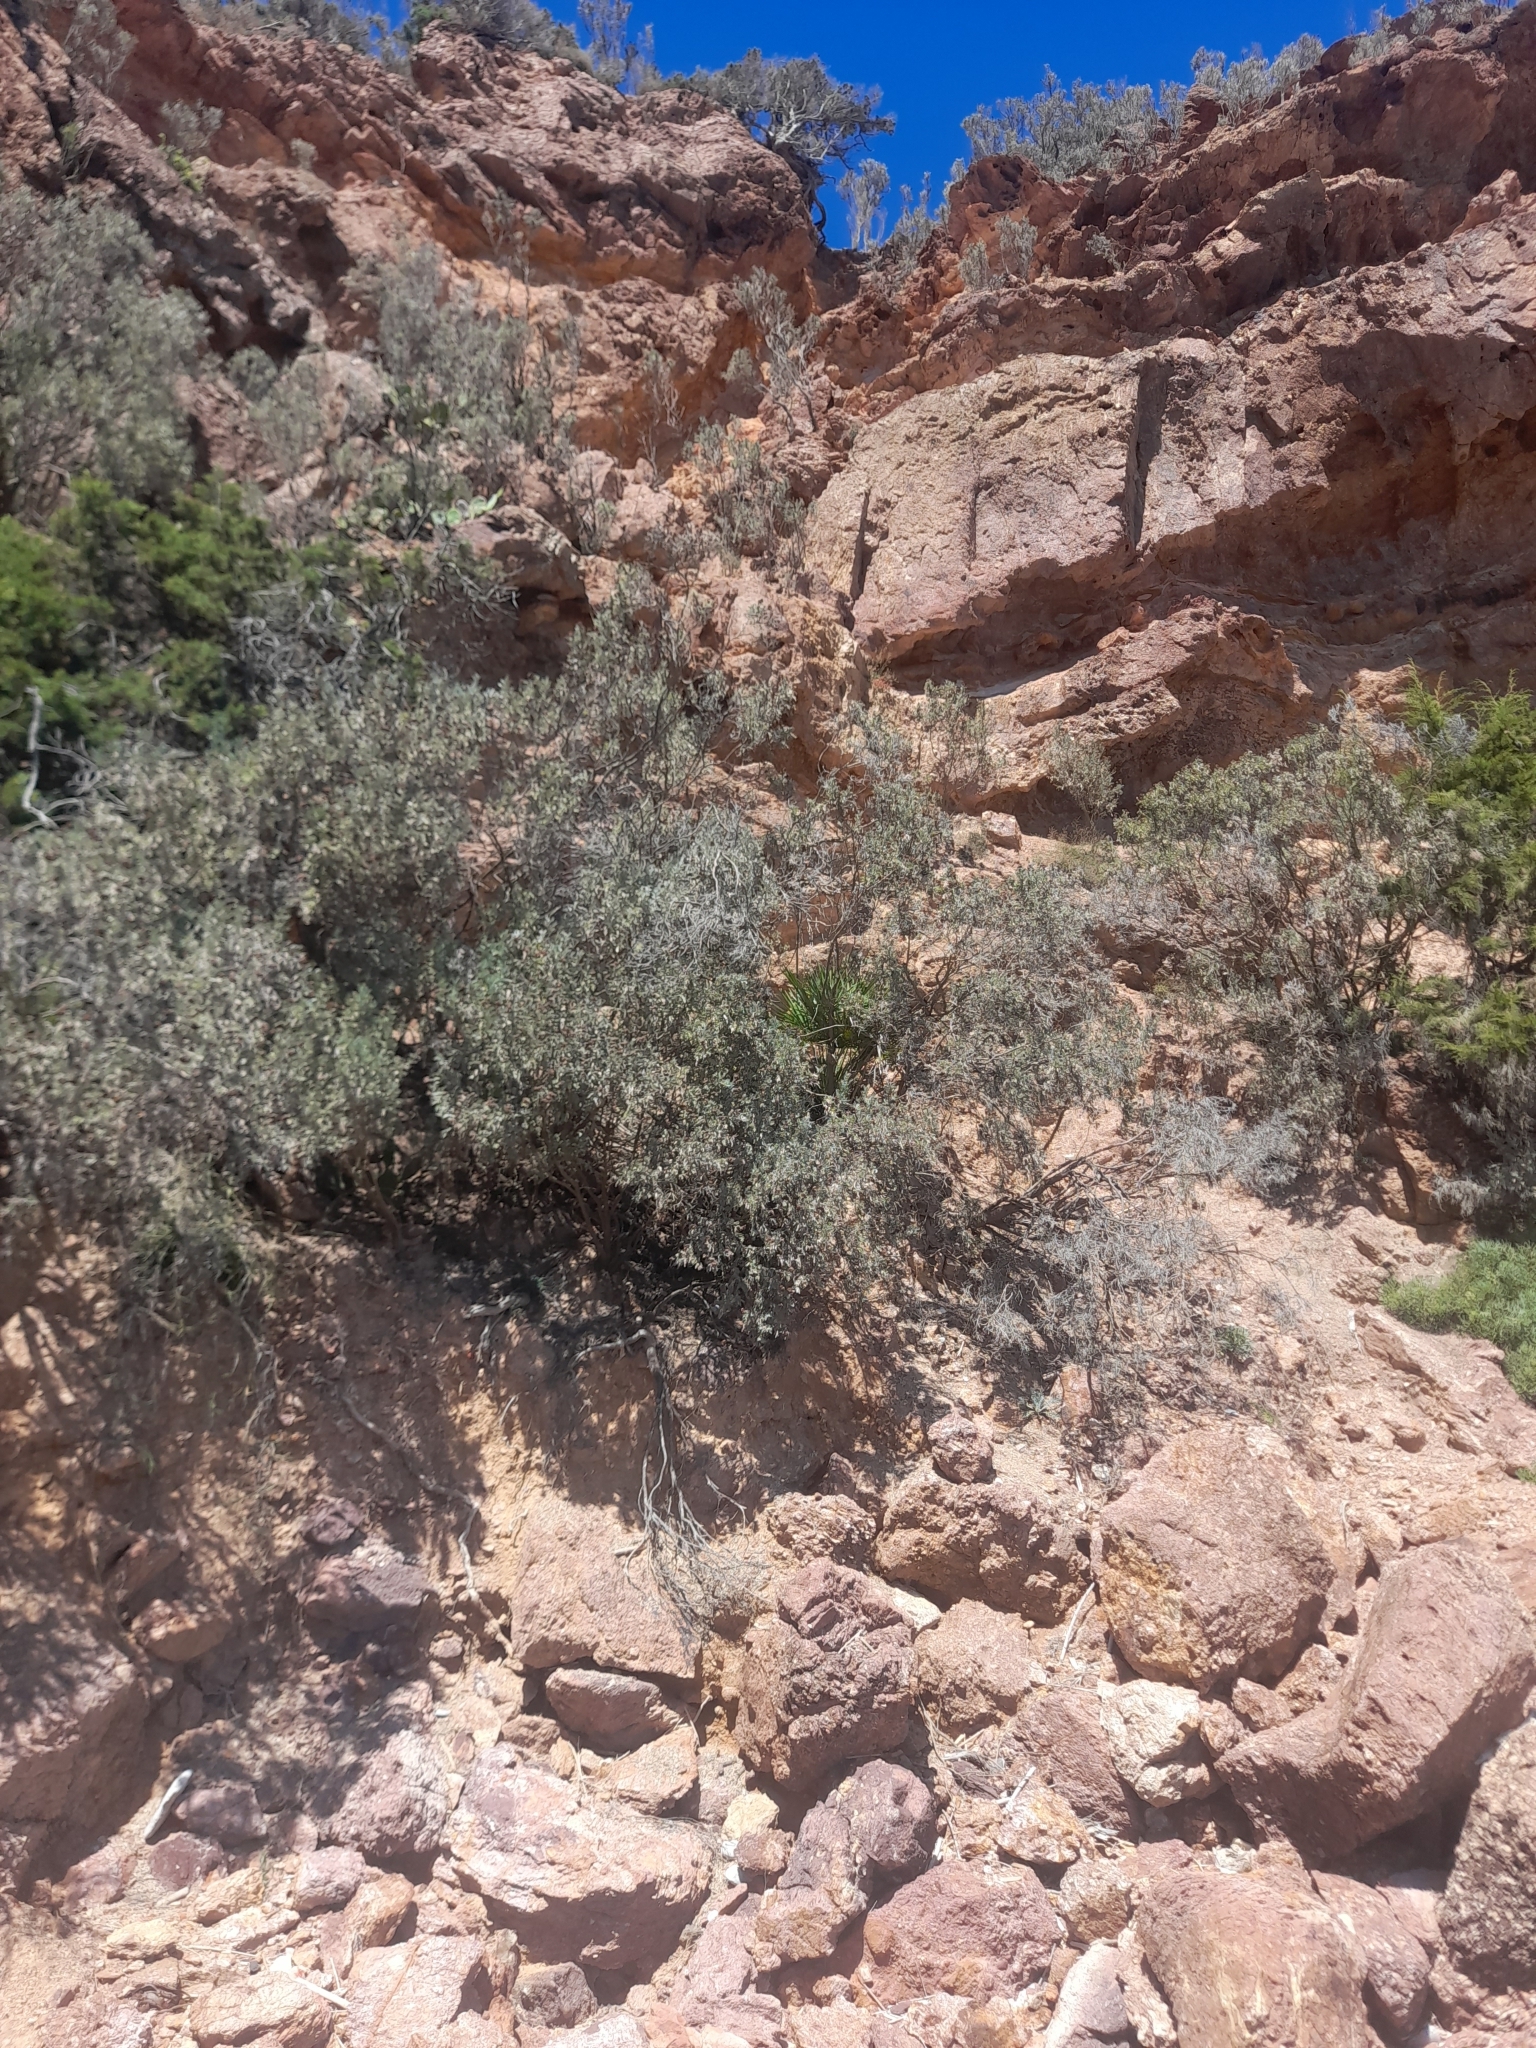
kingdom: Plantae
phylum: Tracheophyta
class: Liliopsida
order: Arecales
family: Arecaceae
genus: Chamaerops
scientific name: Chamaerops humilis
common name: Dwarf fan palm
